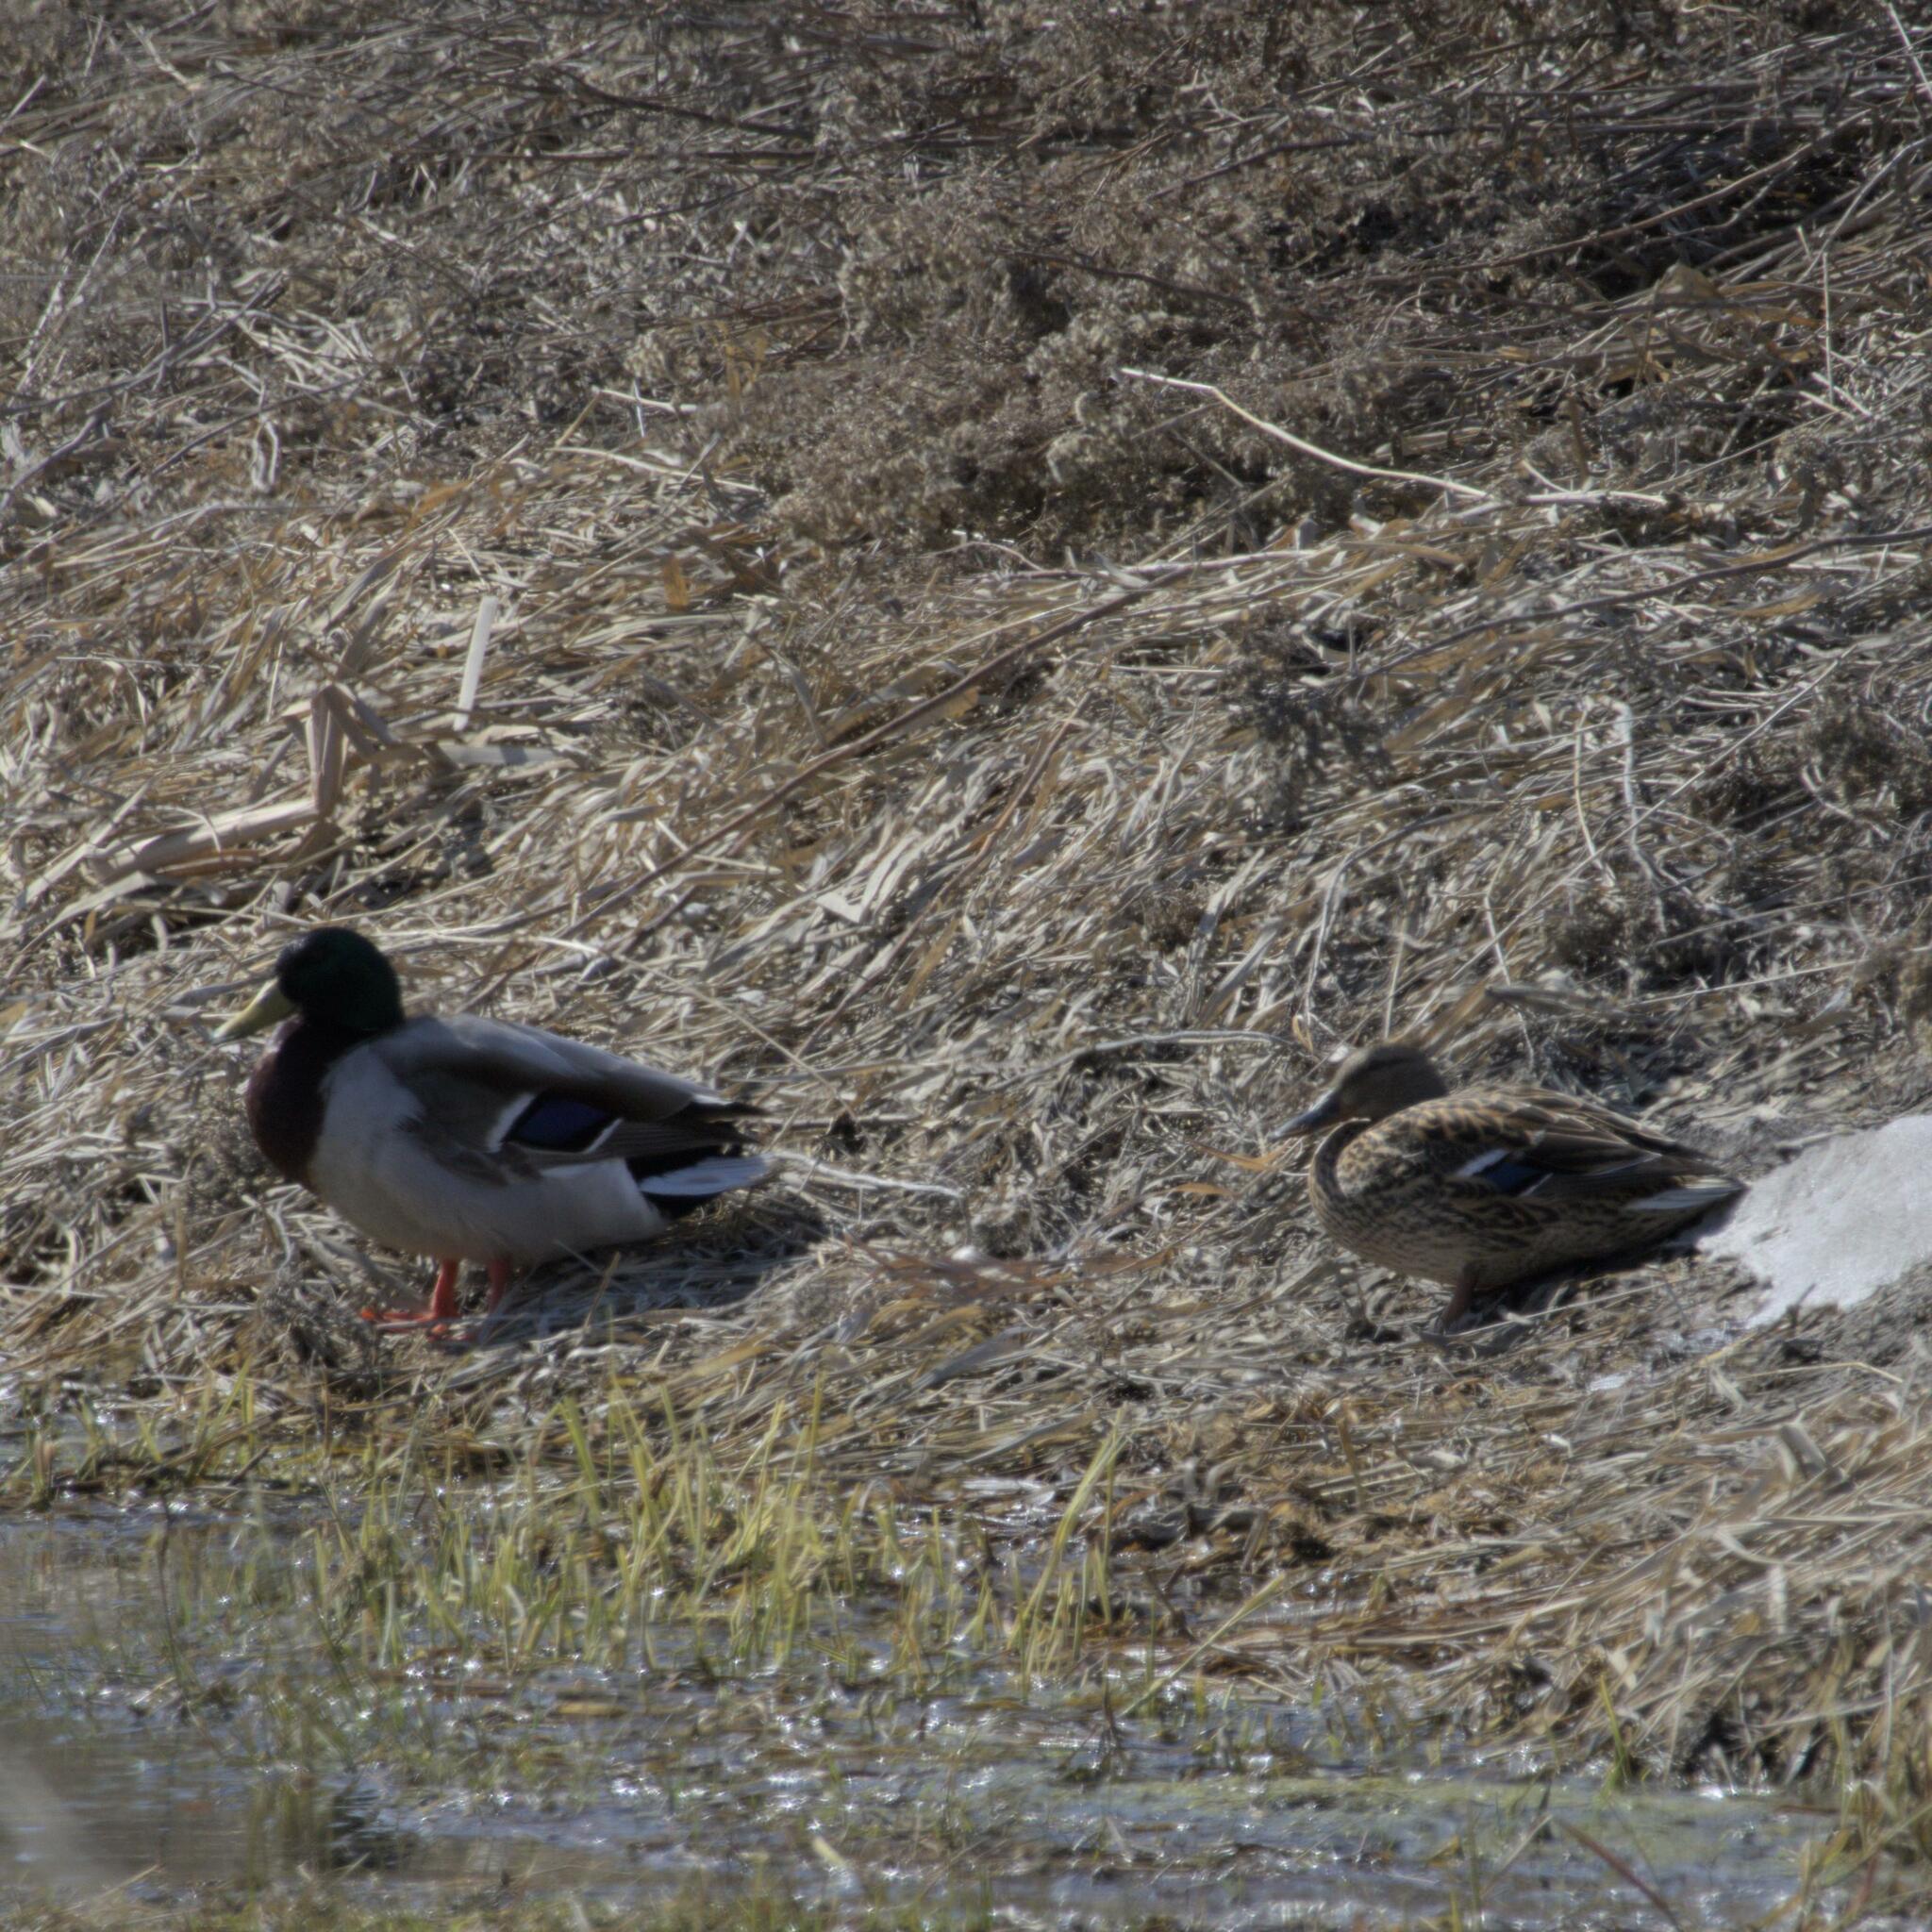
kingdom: Animalia
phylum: Chordata
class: Aves
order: Anseriformes
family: Anatidae
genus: Anas
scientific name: Anas platyrhynchos
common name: Mallard
